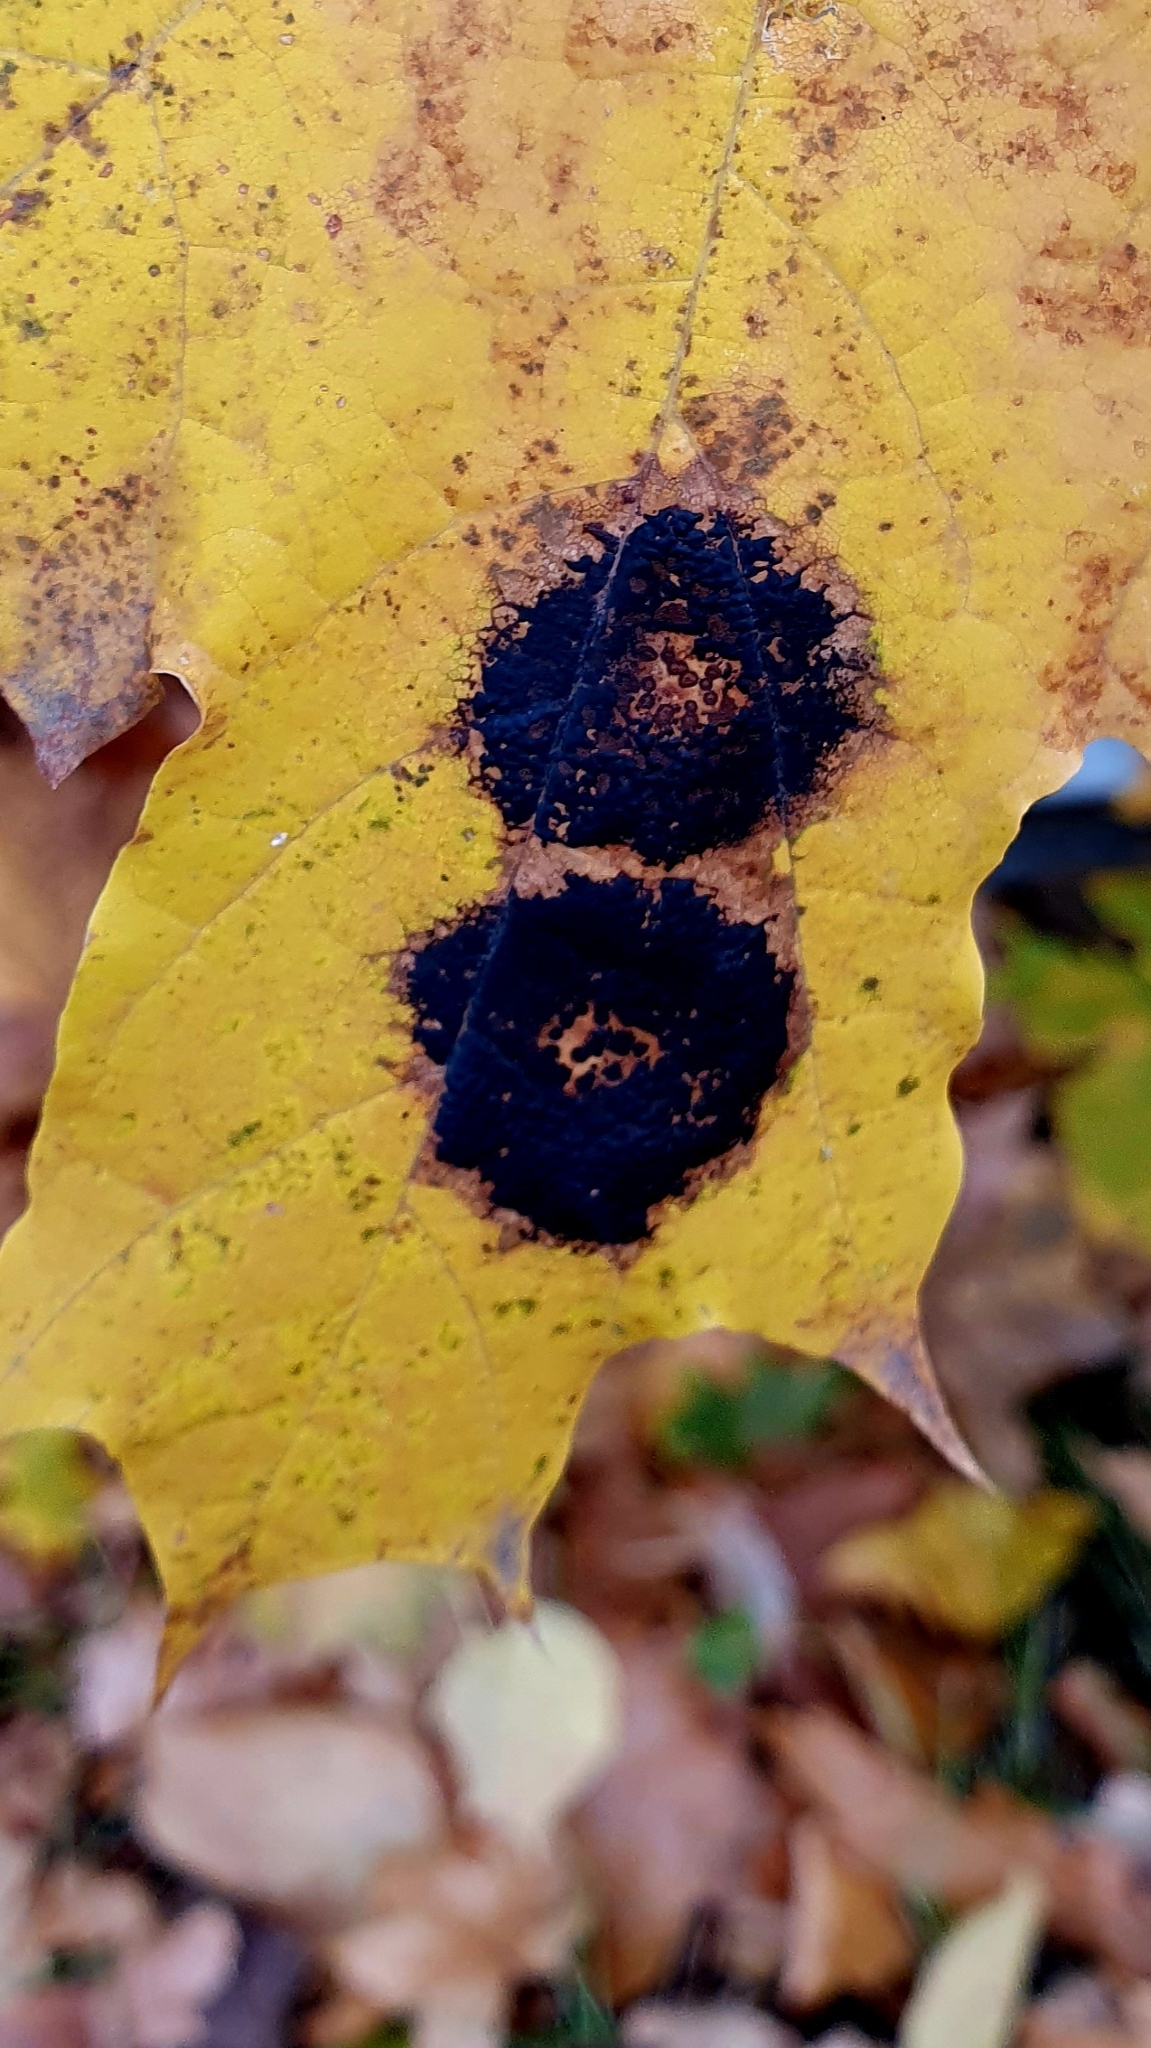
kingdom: Fungi
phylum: Ascomycota
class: Leotiomycetes
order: Rhytismatales
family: Rhytismataceae
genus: Rhytisma
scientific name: Rhytisma acerinum
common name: European tar spot
